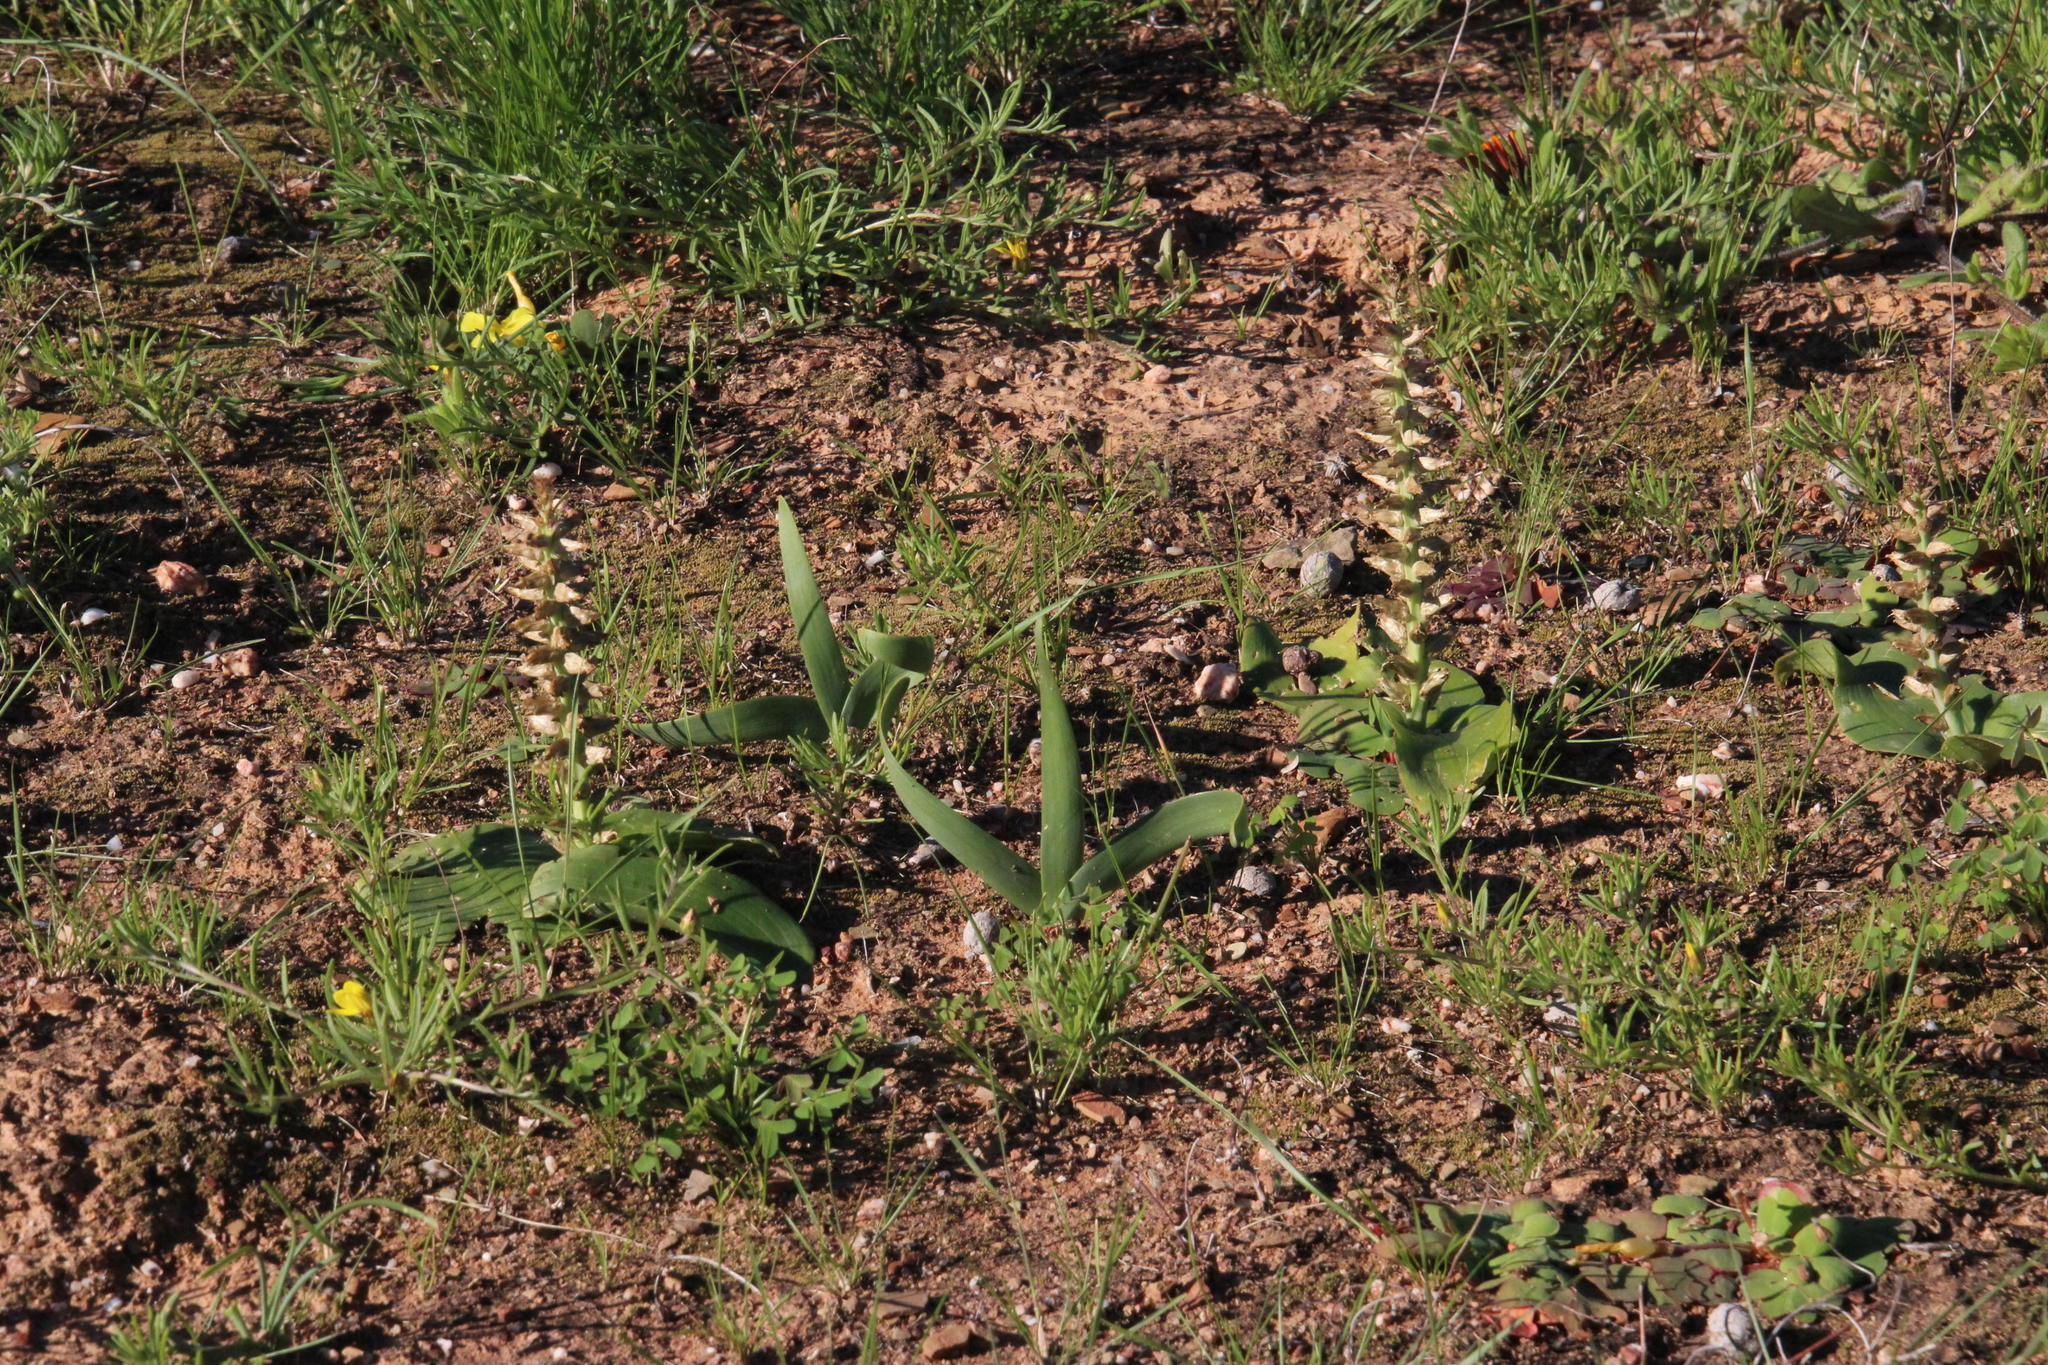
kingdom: Plantae
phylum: Tracheophyta
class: Liliopsida
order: Asparagales
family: Asparagaceae
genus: Lachenalia
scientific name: Lachenalia undulata
